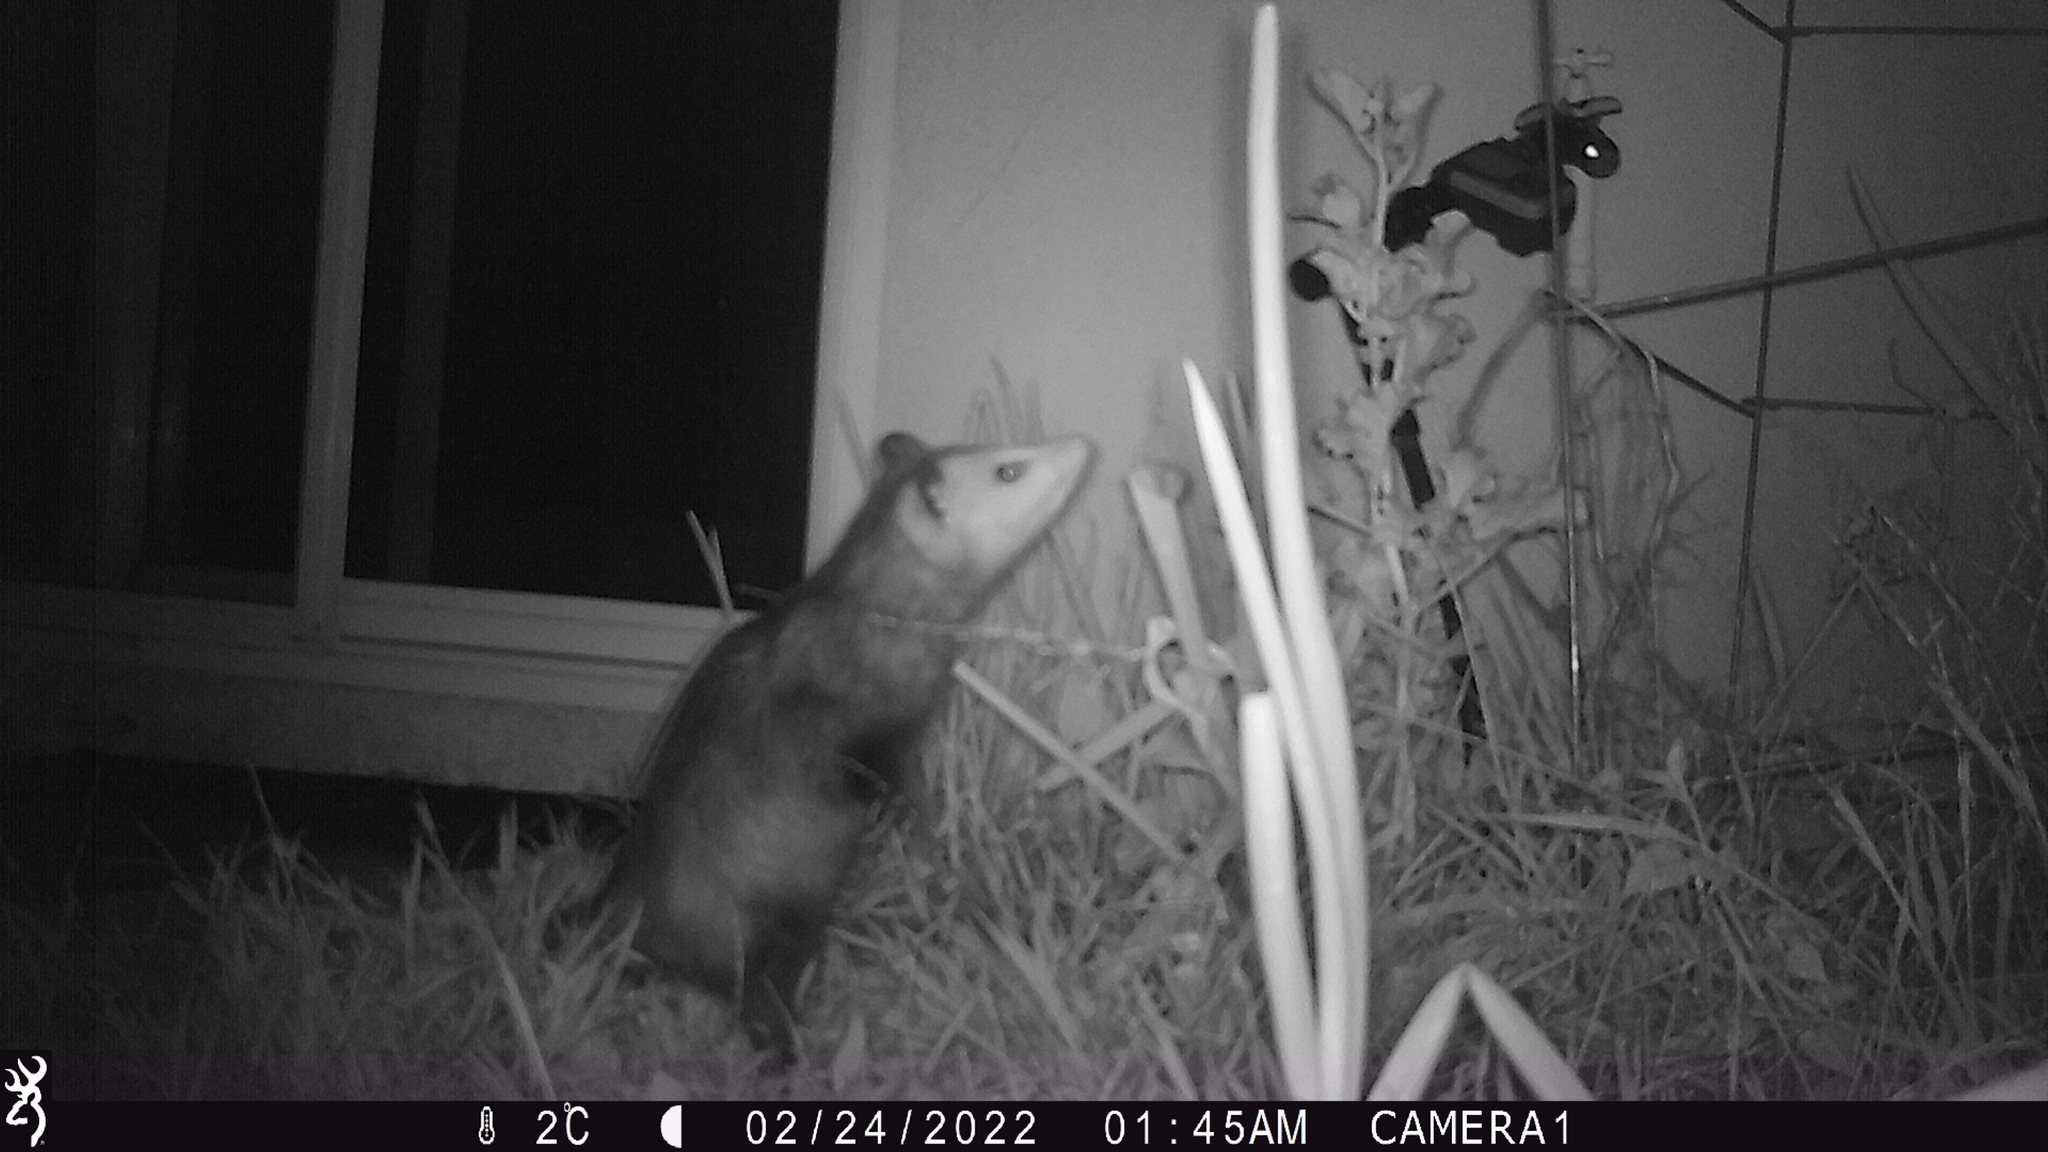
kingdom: Animalia
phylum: Chordata
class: Mammalia
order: Didelphimorphia
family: Didelphidae
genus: Didelphis
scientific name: Didelphis virginiana
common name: Virginia opossum
